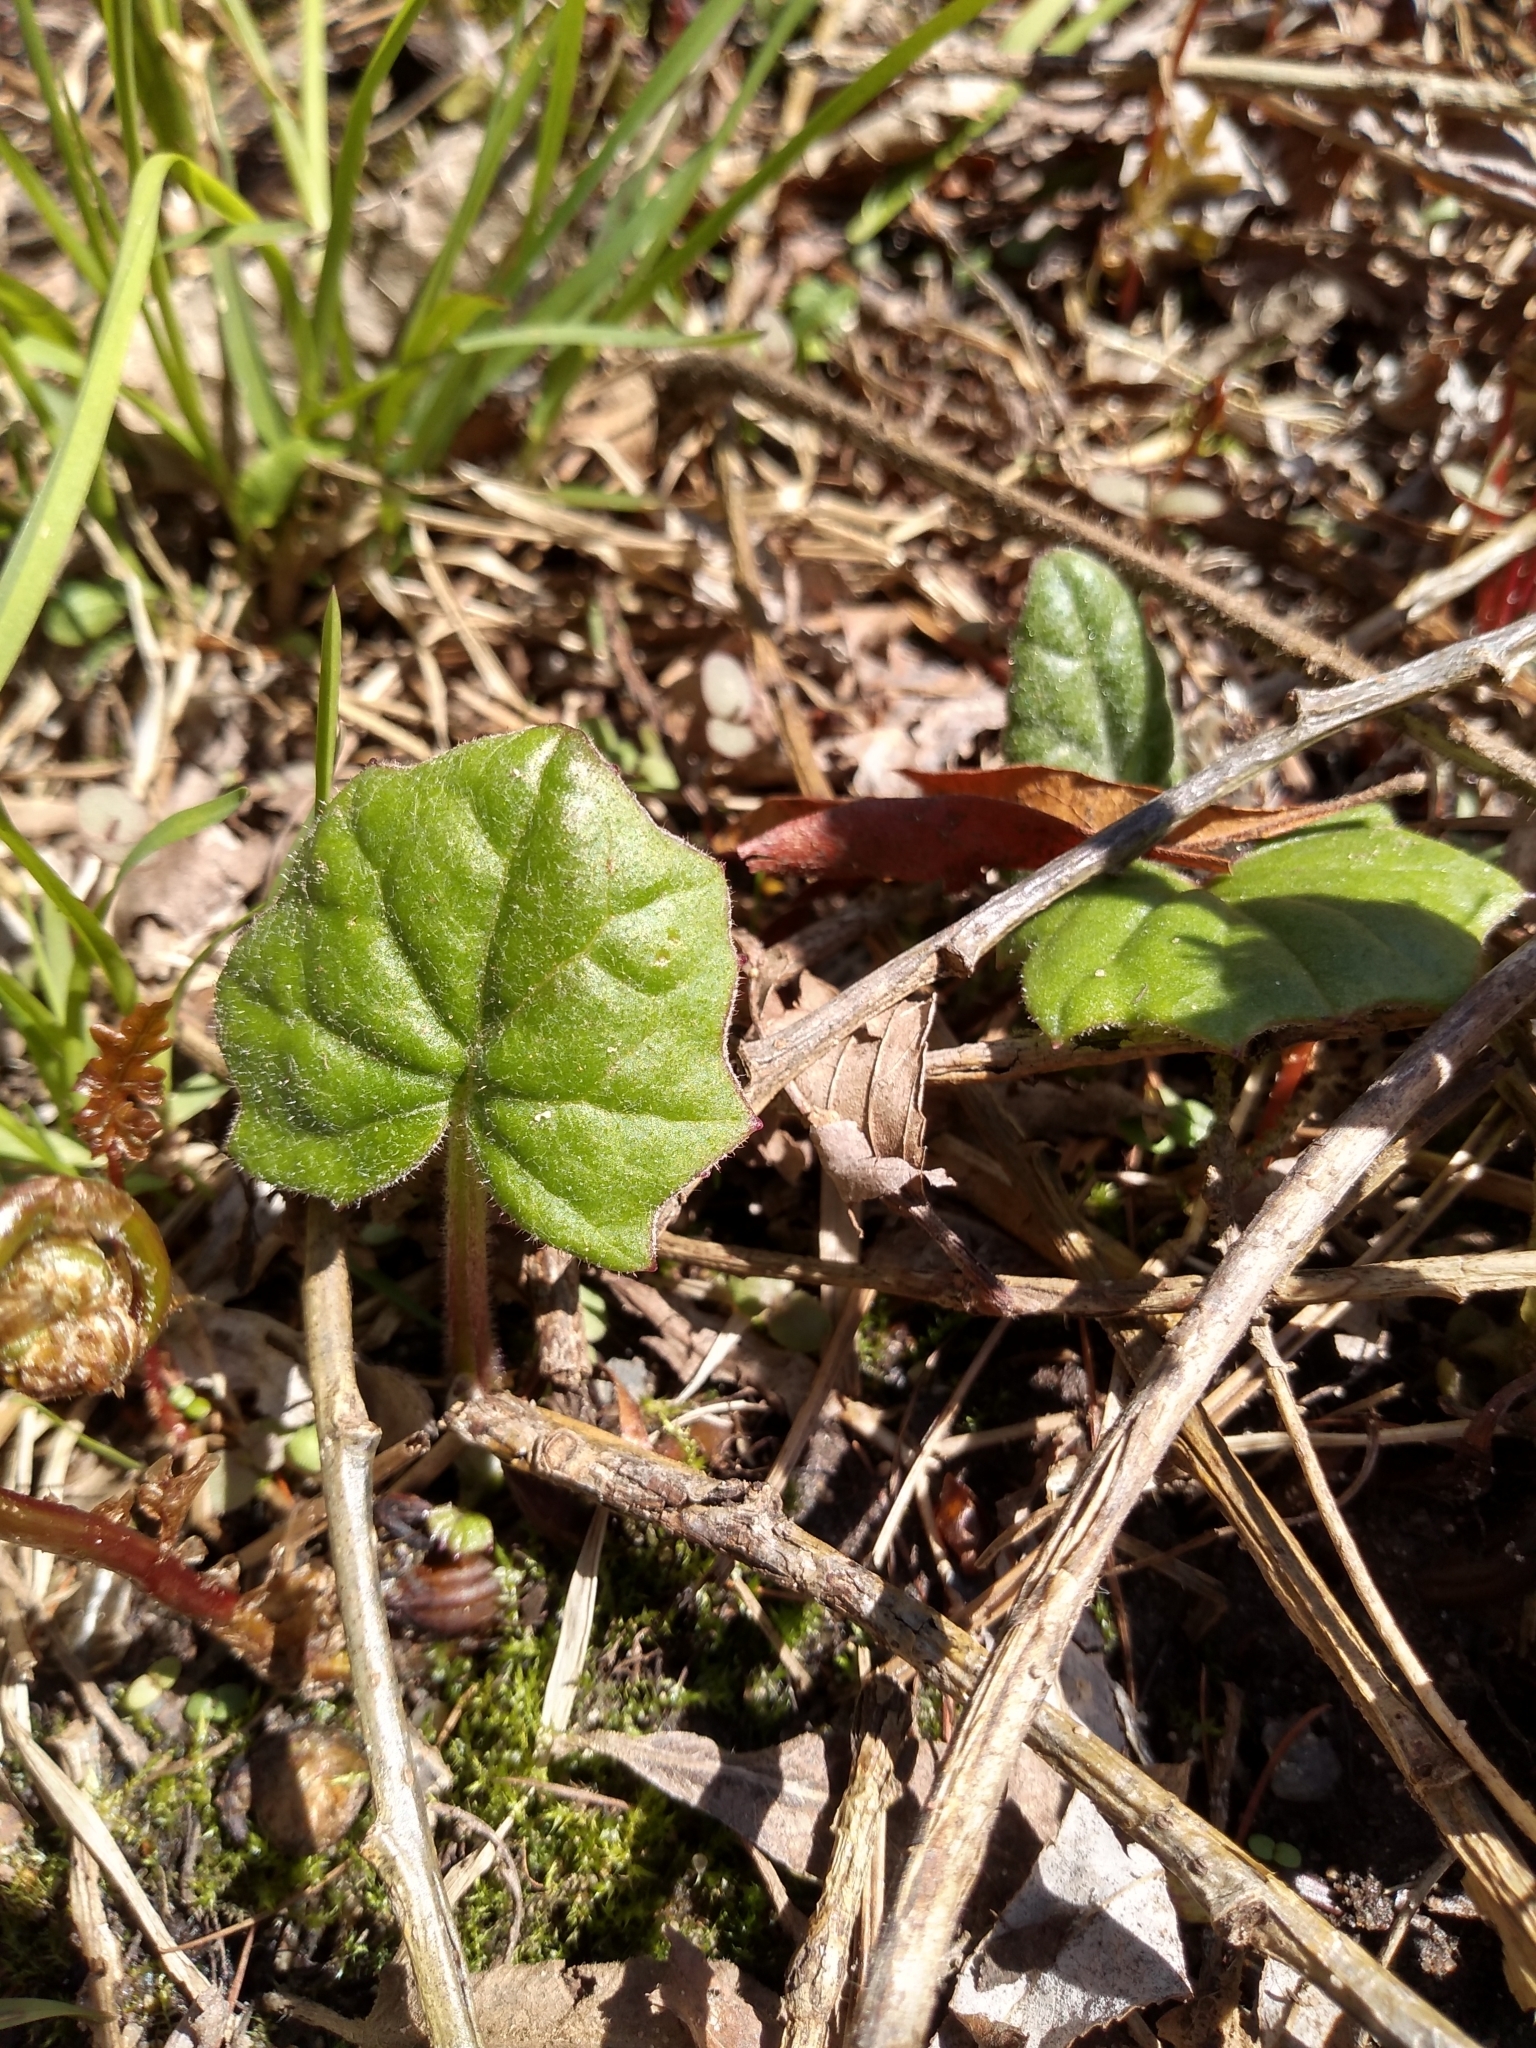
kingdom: Plantae
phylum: Tracheophyta
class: Magnoliopsida
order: Asterales
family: Asteraceae
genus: Tussilago
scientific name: Tussilago farfara
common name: Coltsfoot
